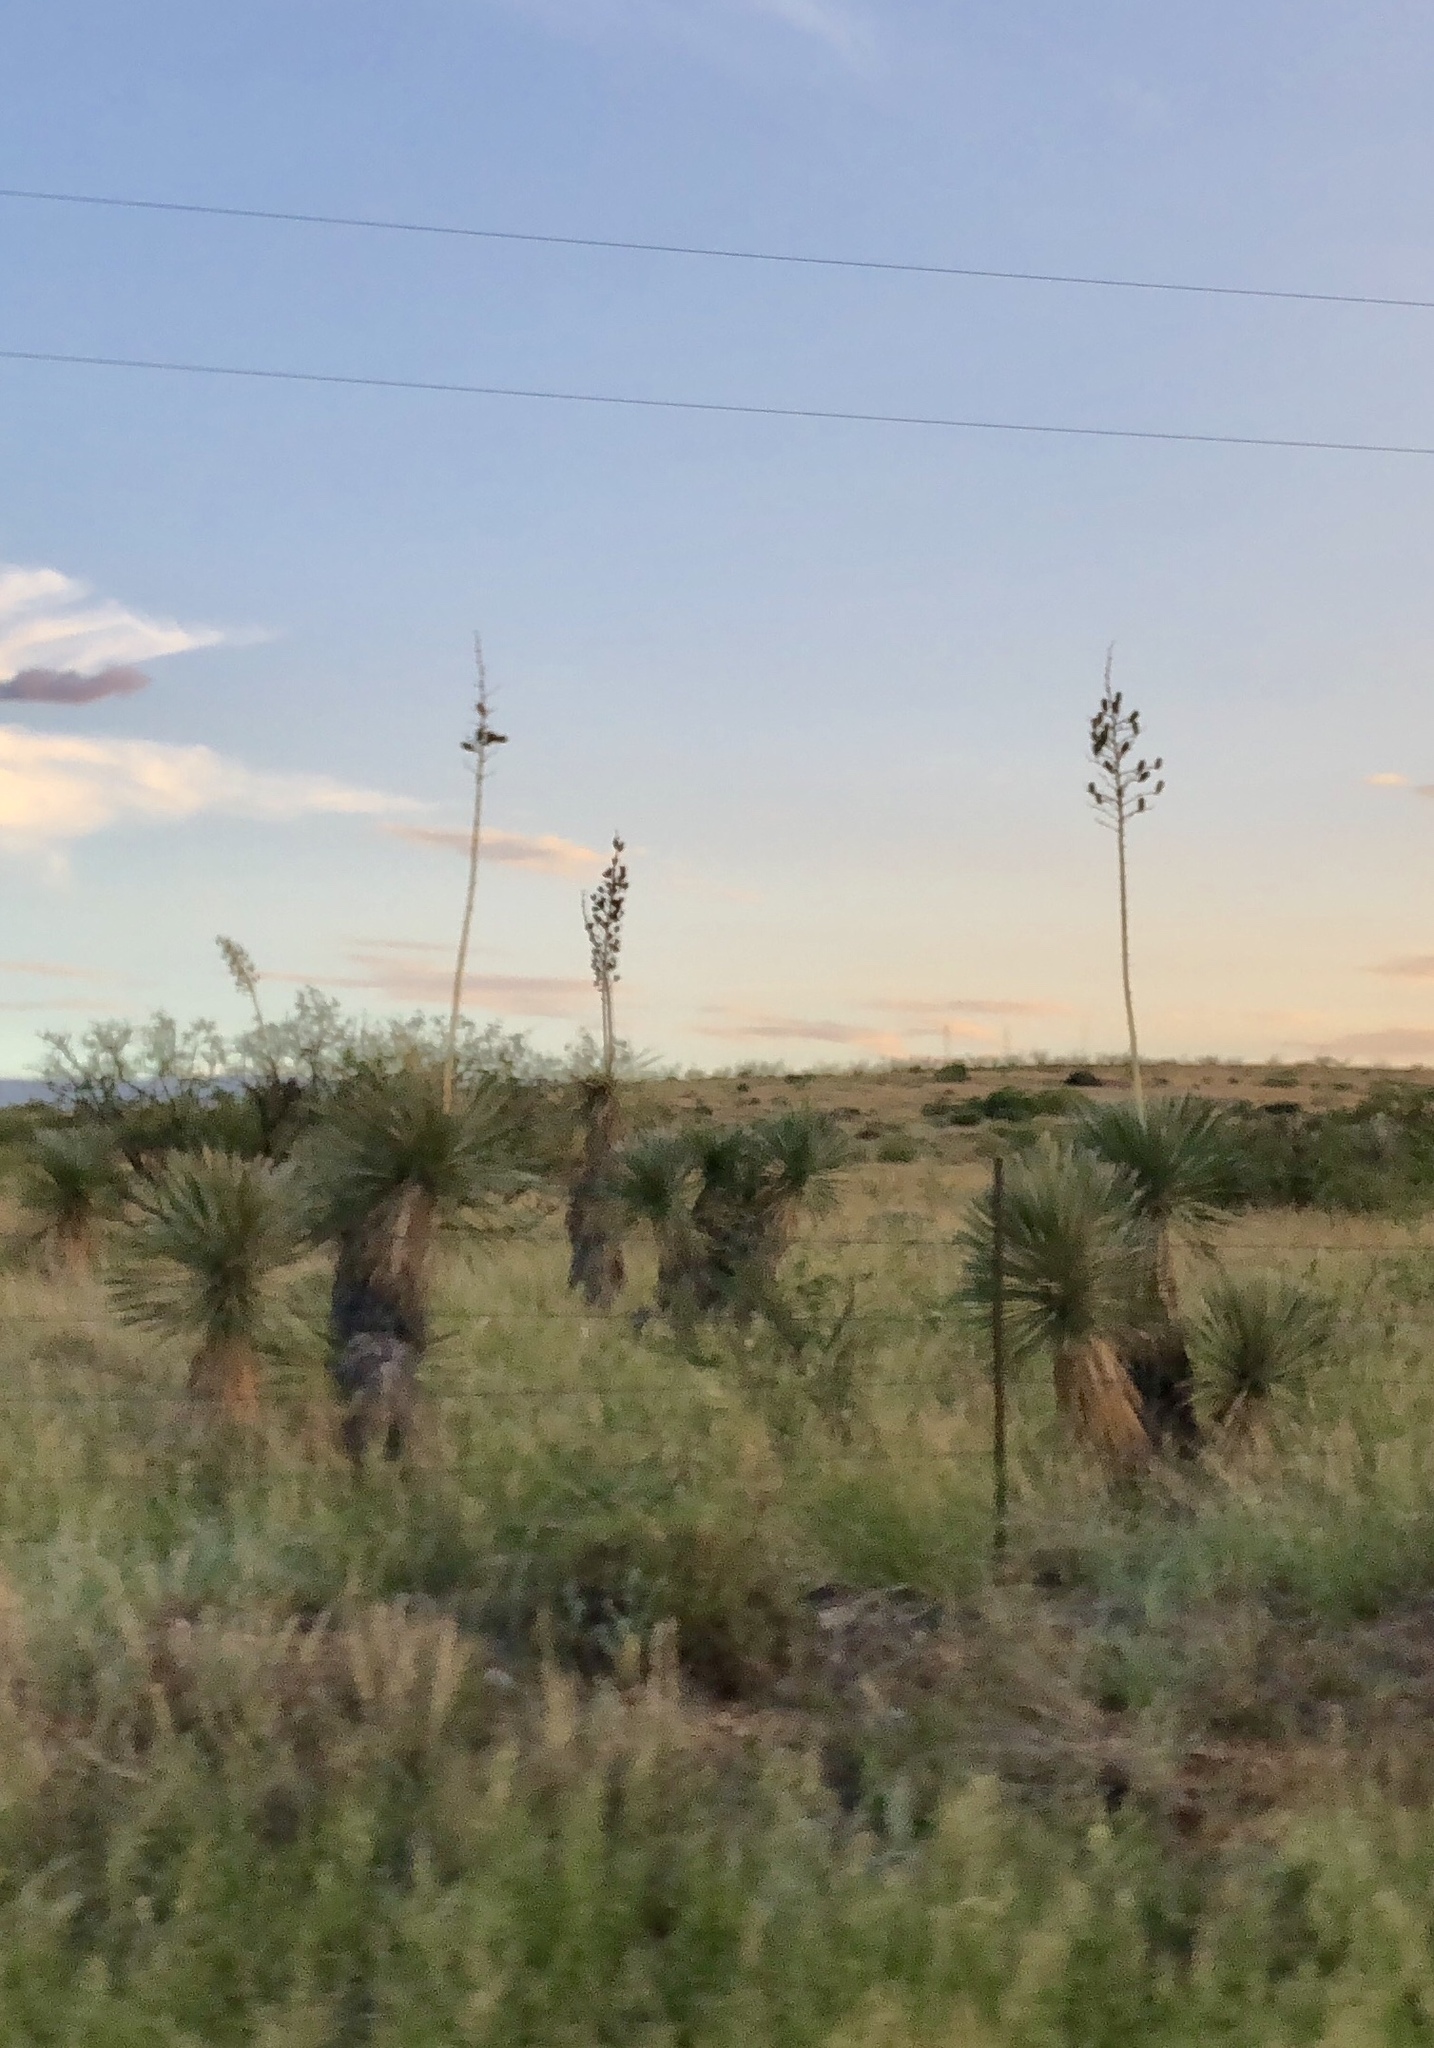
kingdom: Plantae
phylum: Tracheophyta
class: Liliopsida
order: Asparagales
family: Asparagaceae
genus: Yucca
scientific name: Yucca elata
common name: Palmella
